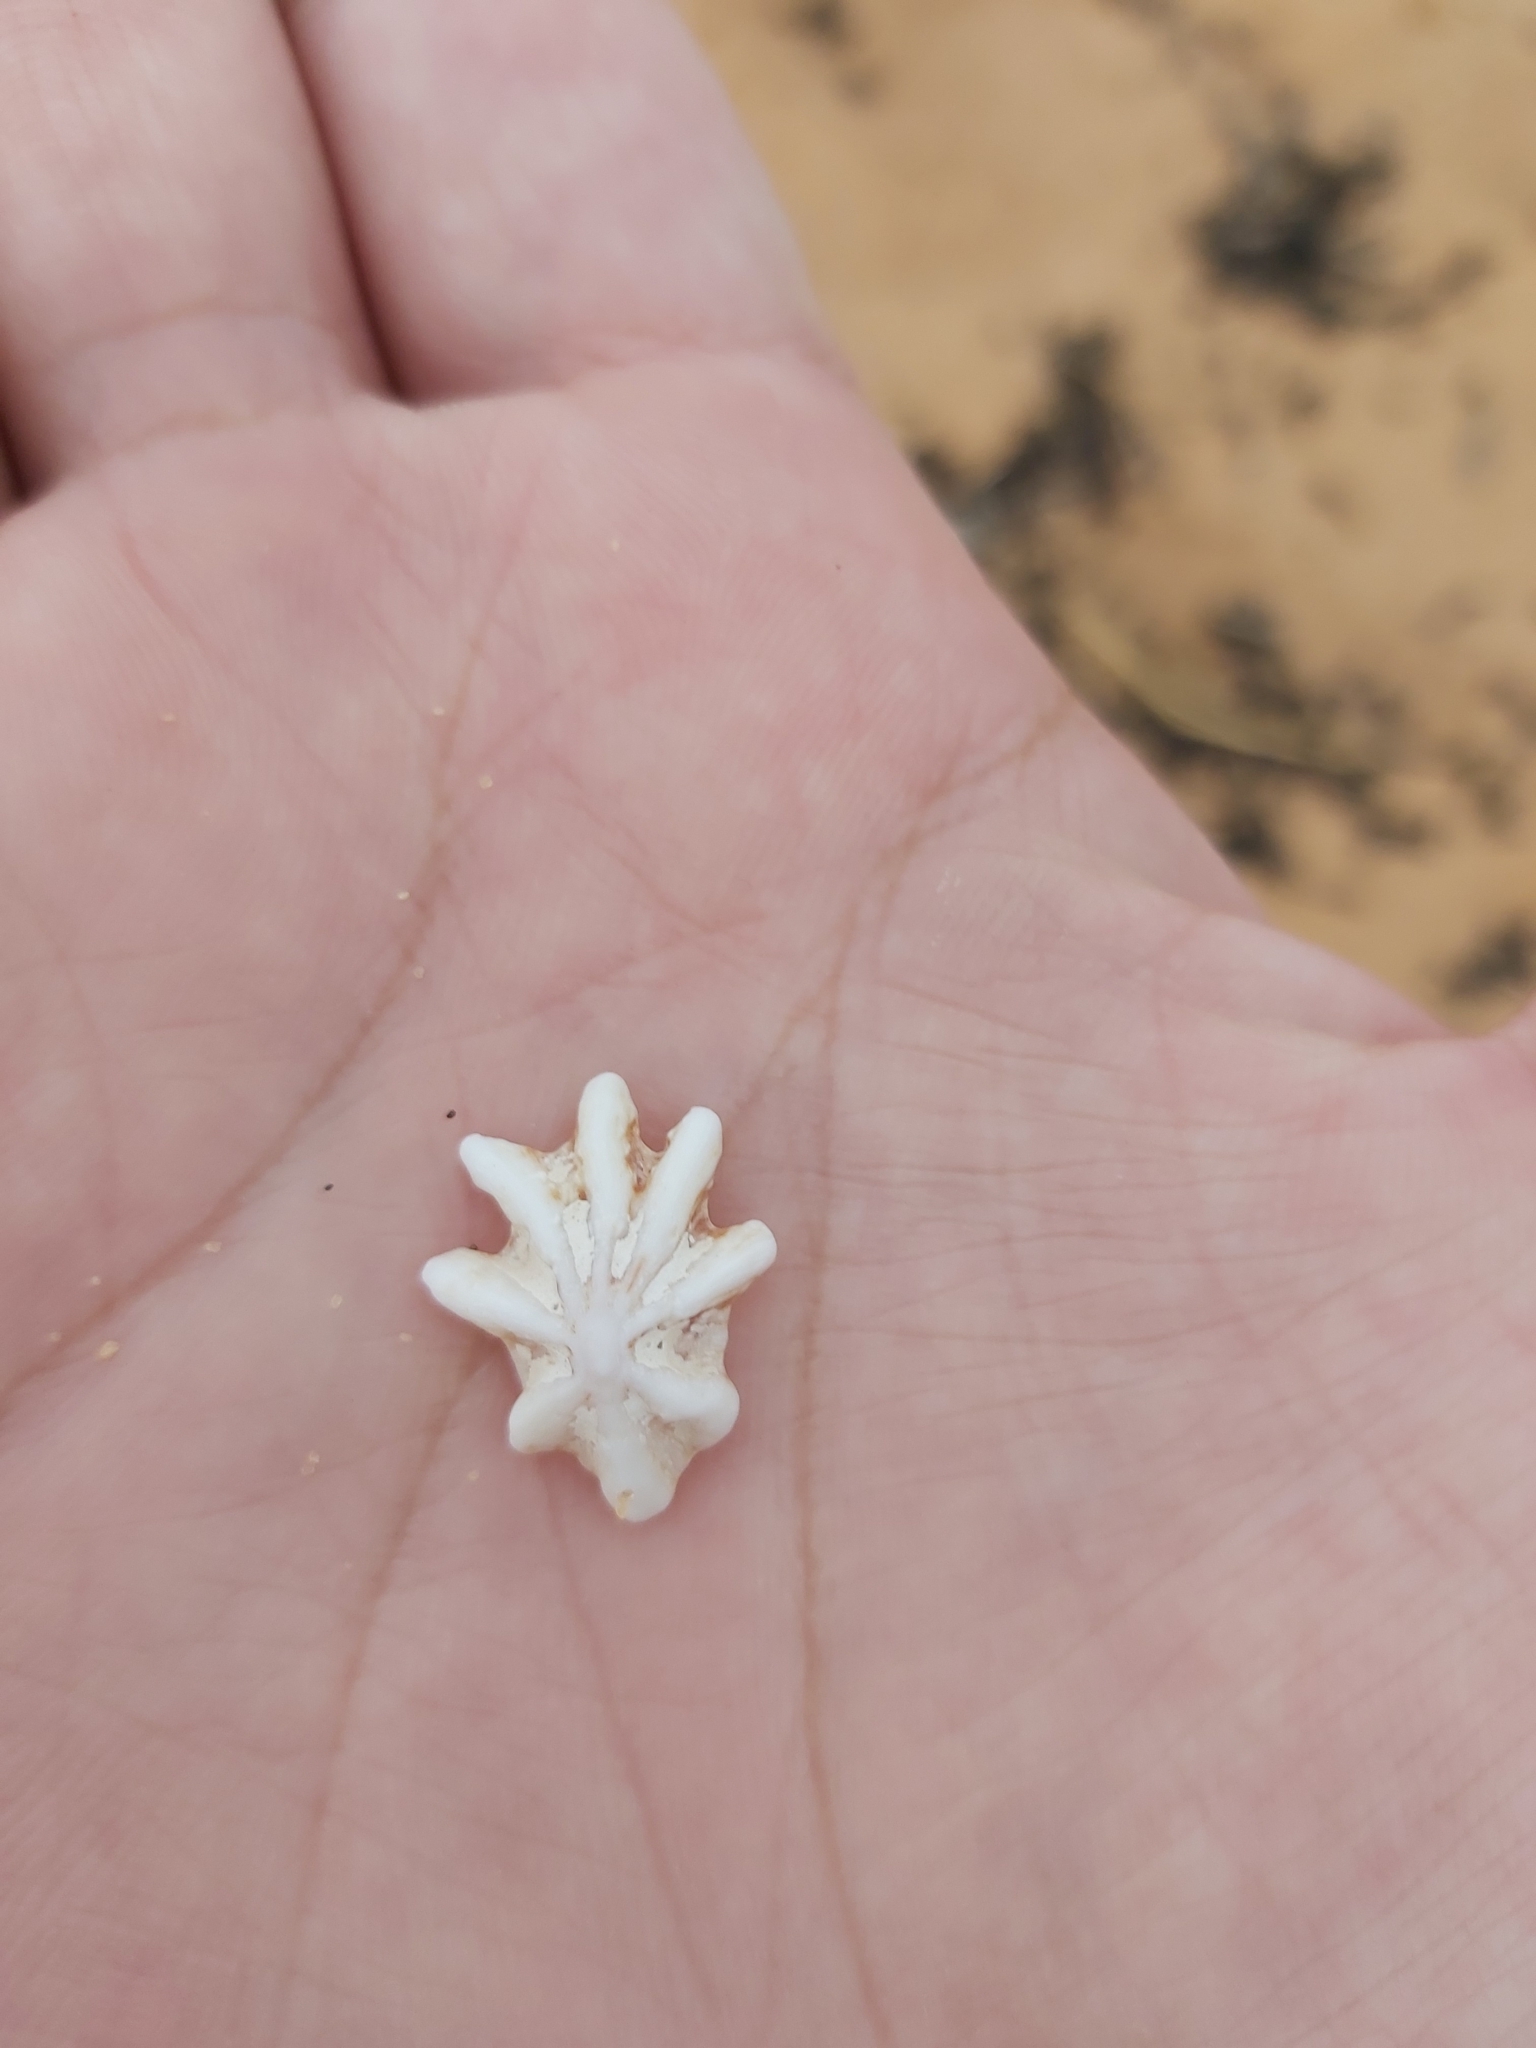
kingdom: Animalia
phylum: Mollusca
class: Gastropoda
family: Patellidae
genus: Scutellastra
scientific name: Scutellastra chapmani
